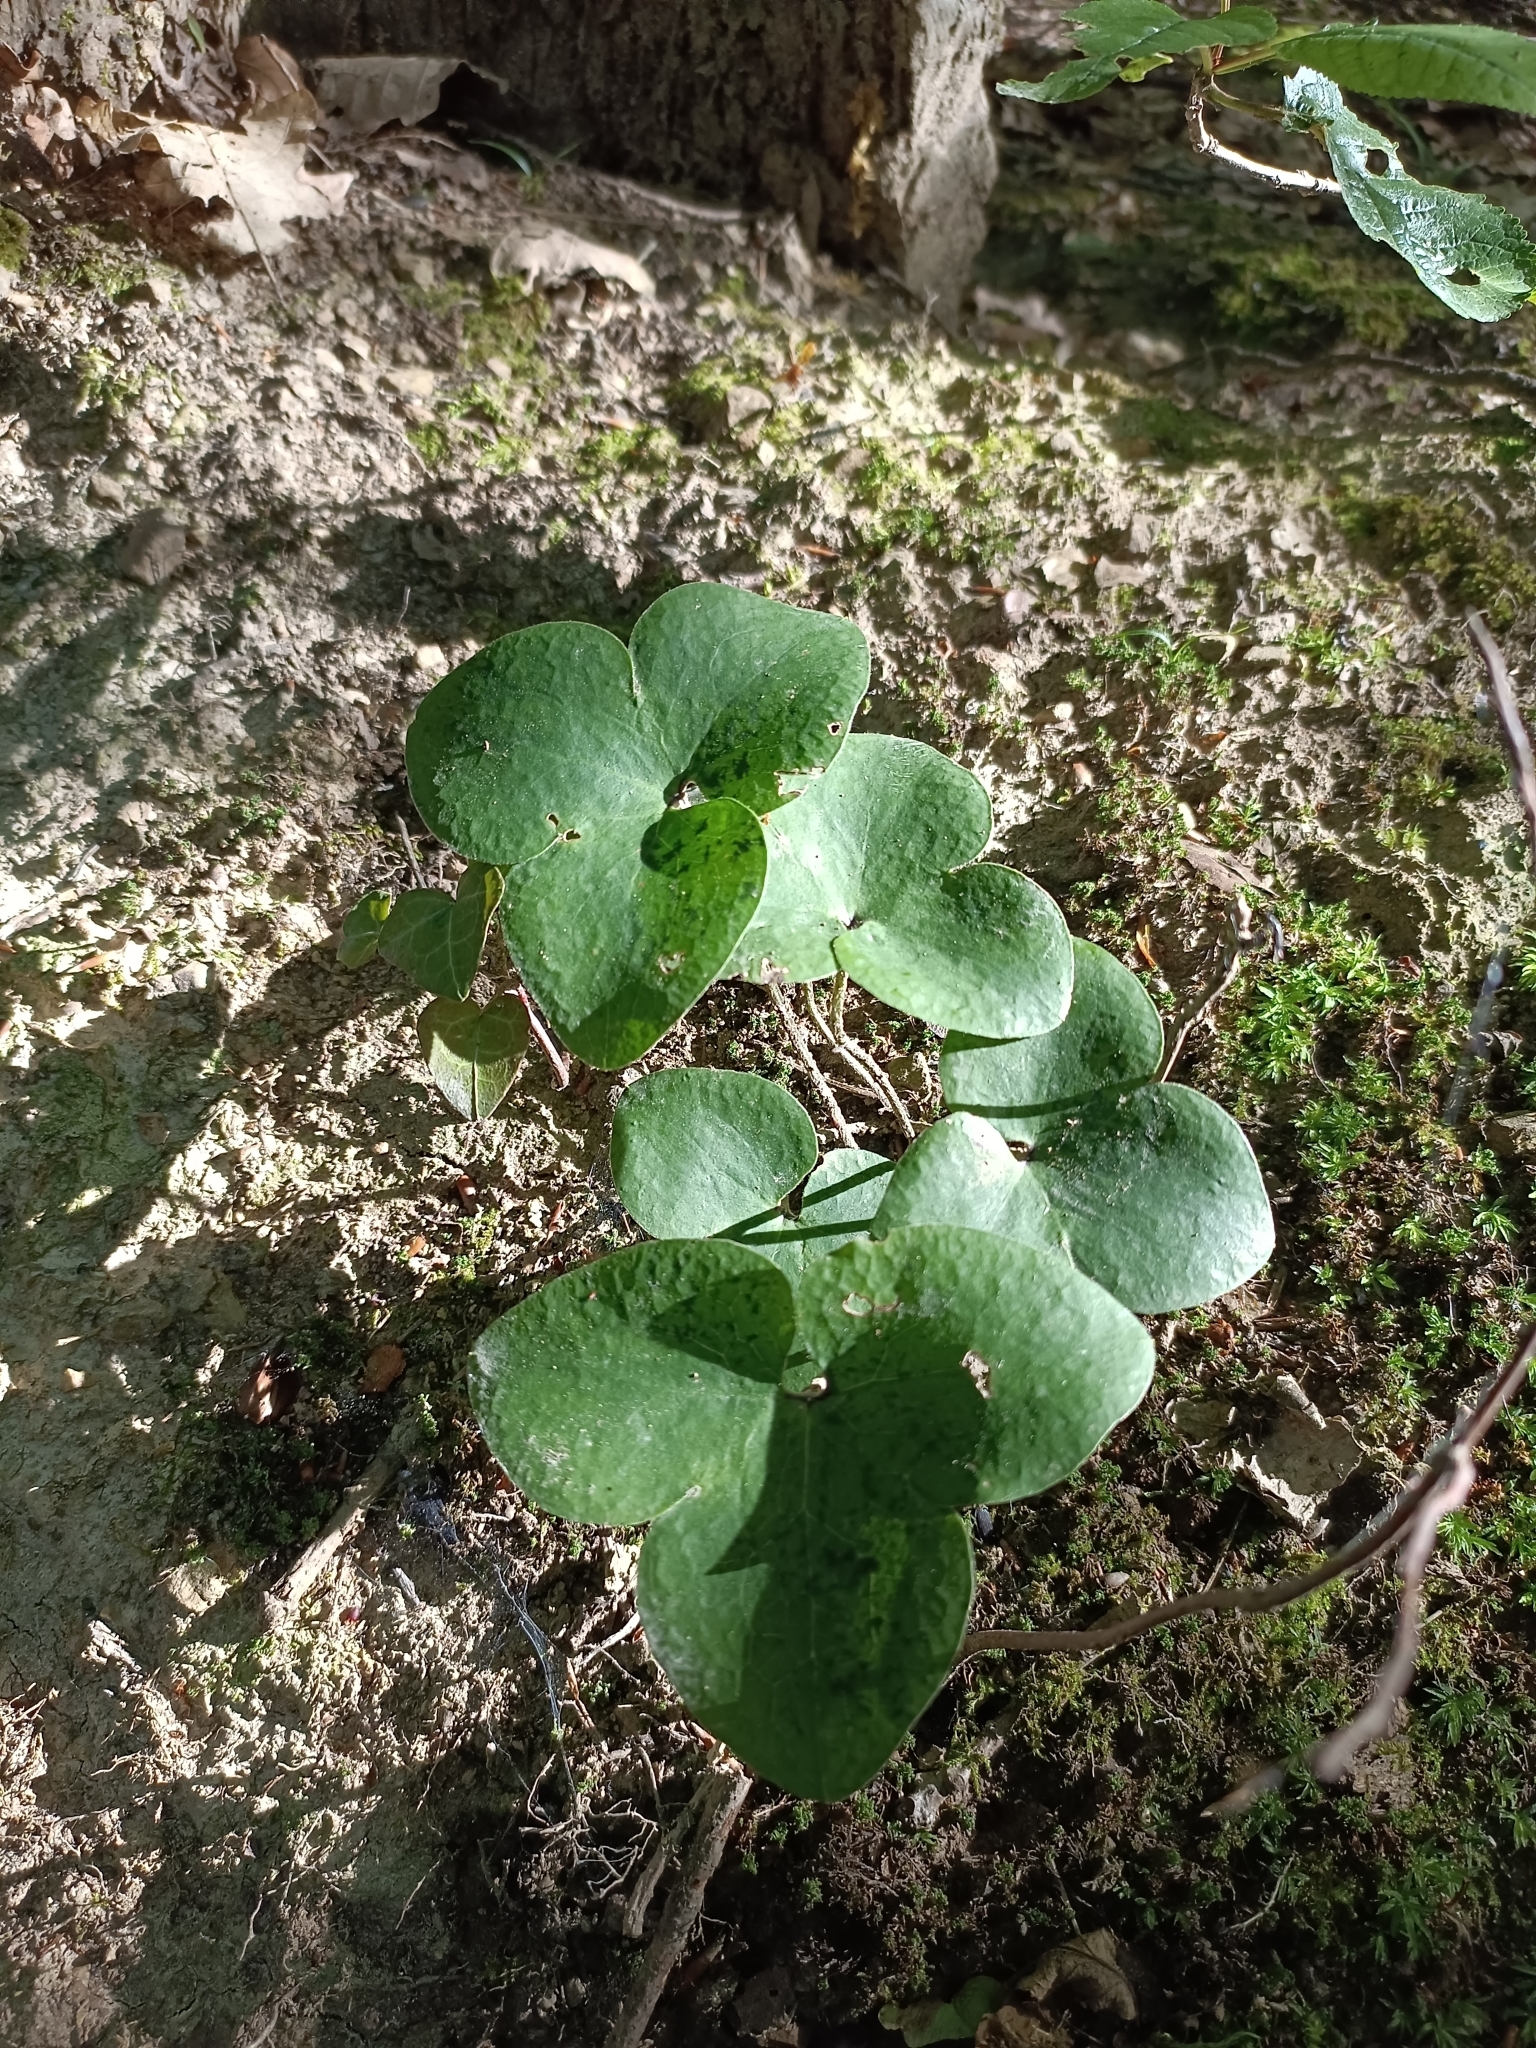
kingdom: Plantae
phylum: Tracheophyta
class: Magnoliopsida
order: Ranunculales
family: Ranunculaceae
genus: Hepatica
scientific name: Hepatica nobilis
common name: Liverleaf
